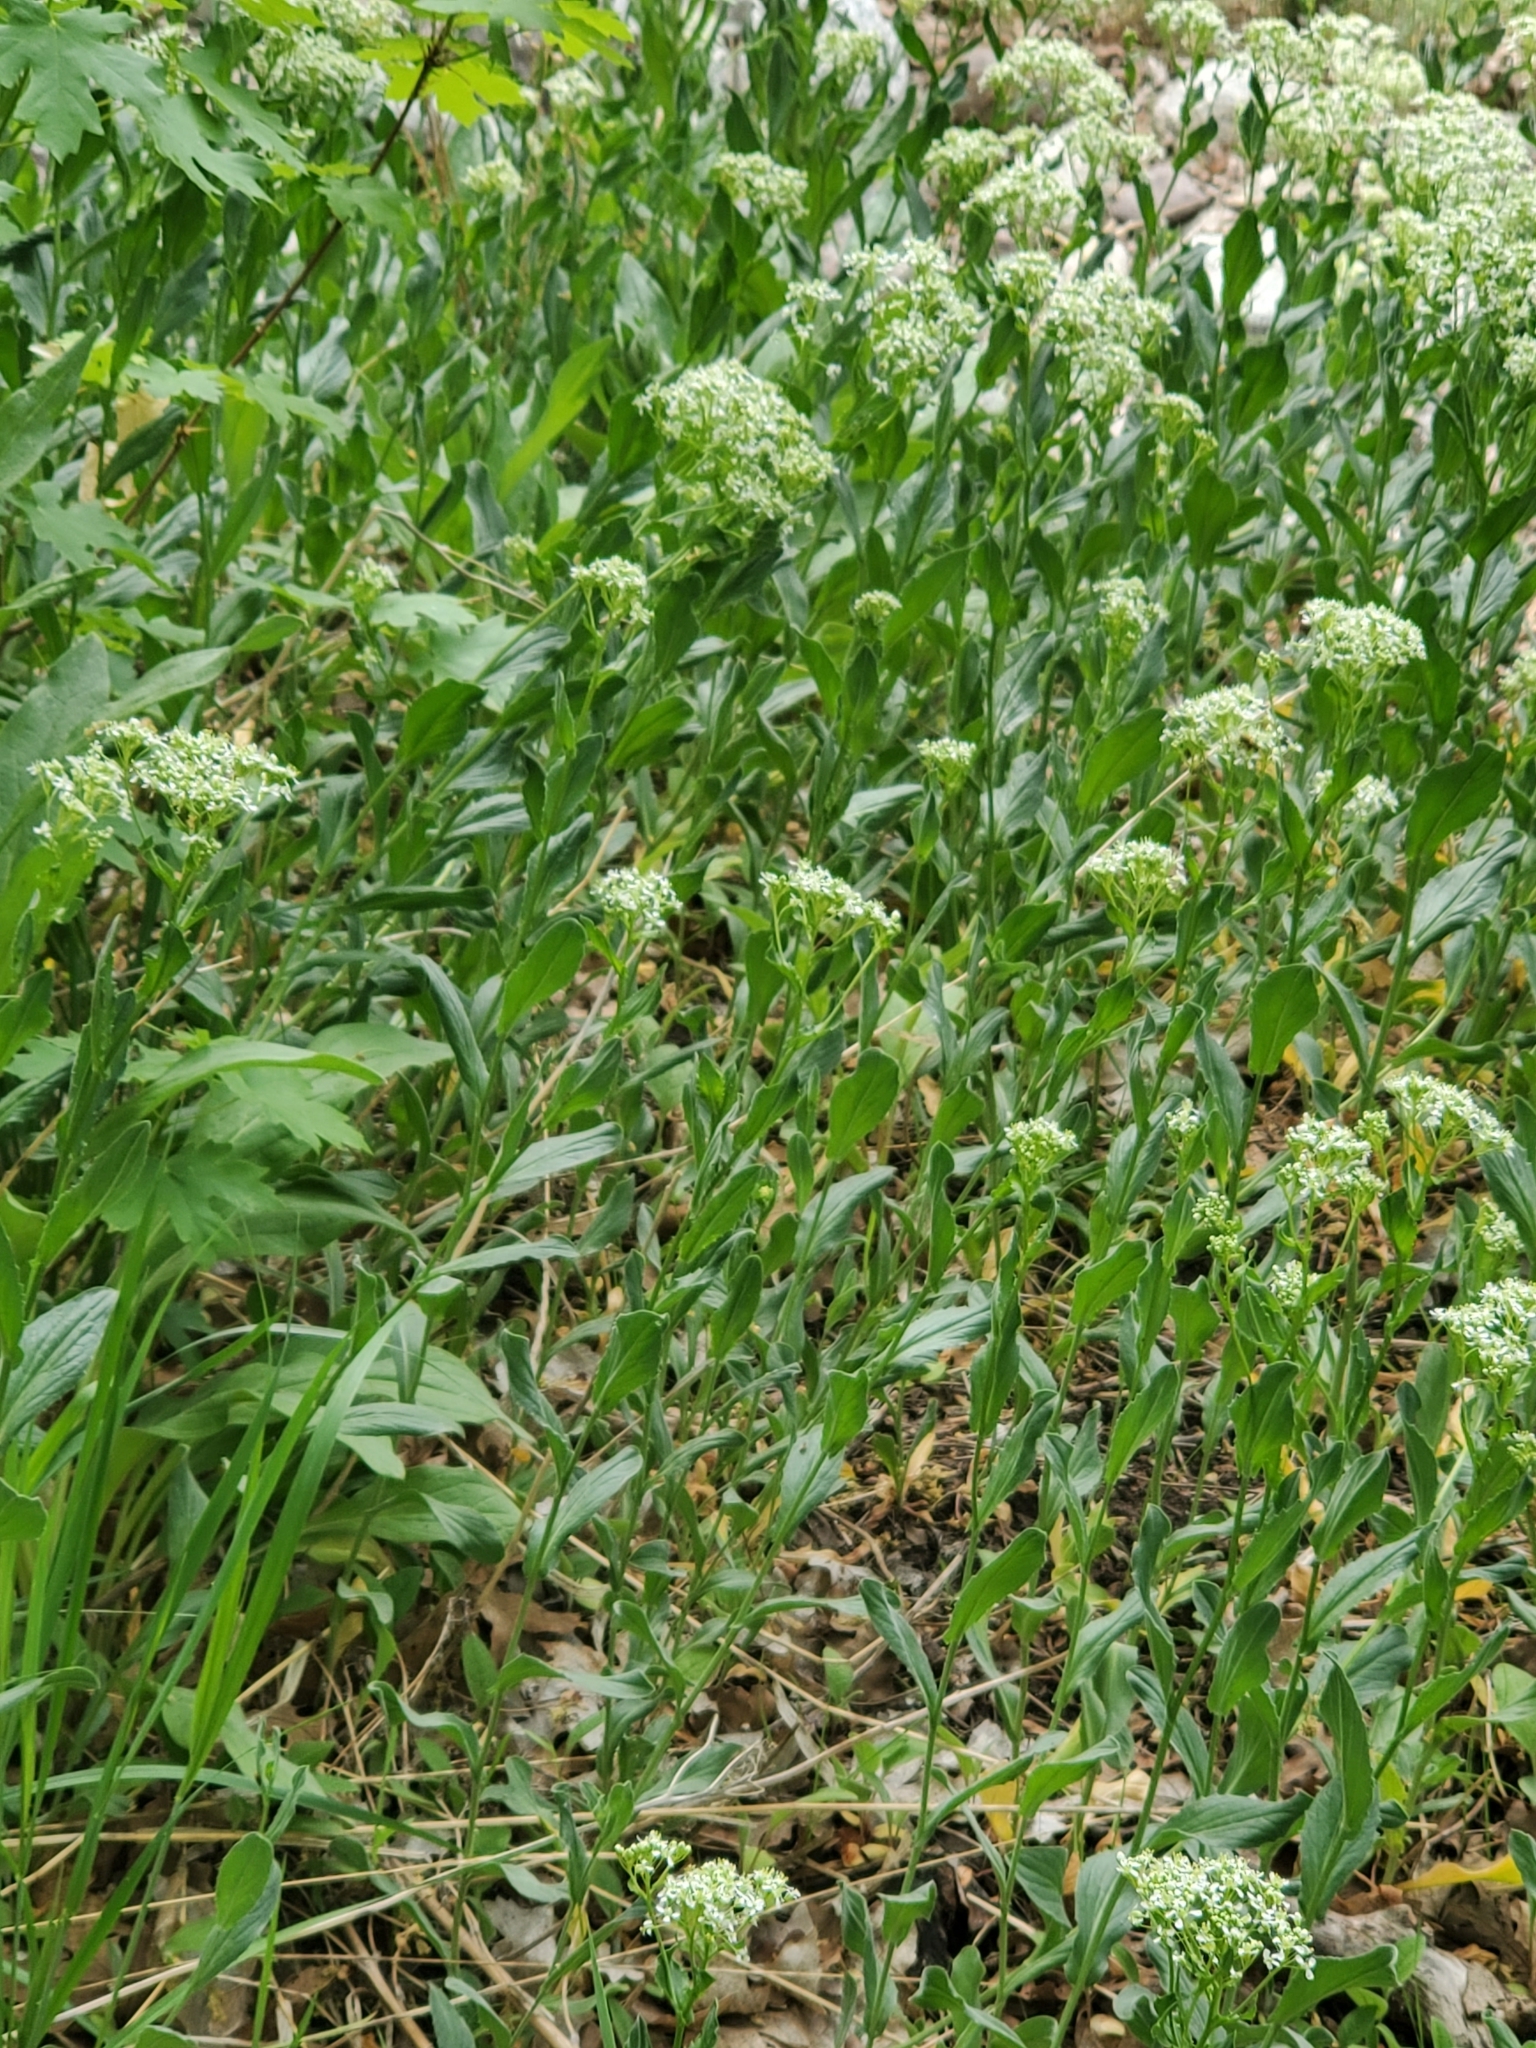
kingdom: Plantae
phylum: Tracheophyta
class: Magnoliopsida
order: Brassicales
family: Brassicaceae
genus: Lepidium
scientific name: Lepidium draba
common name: Hoary cress
